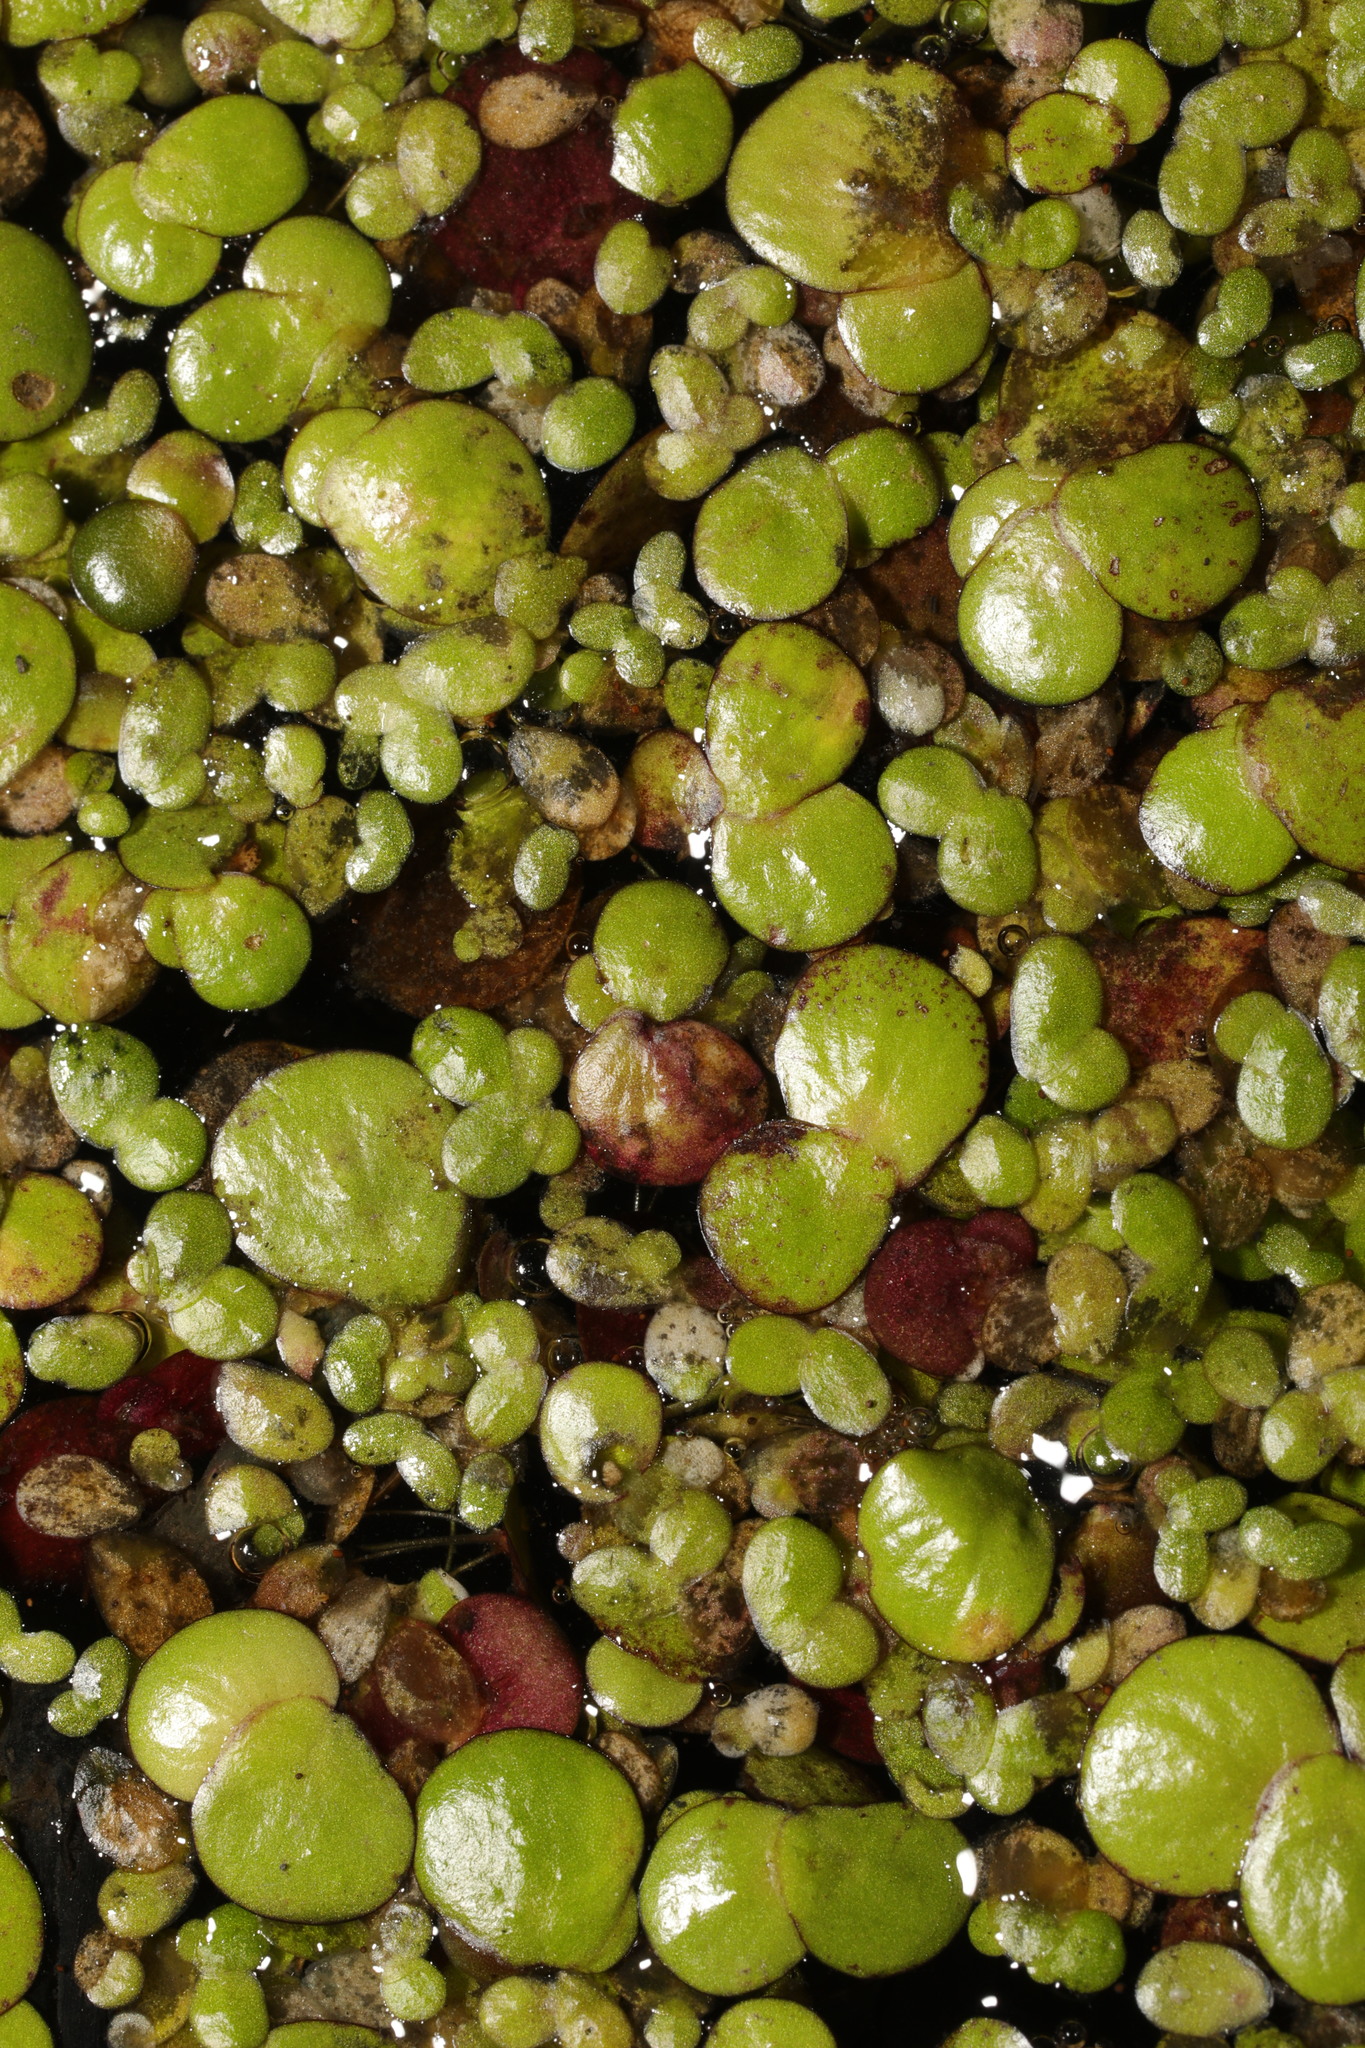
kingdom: Plantae
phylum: Tracheophyta
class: Liliopsida
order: Alismatales
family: Araceae
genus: Spirodela
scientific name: Spirodela polyrhiza
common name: Great duckweed
